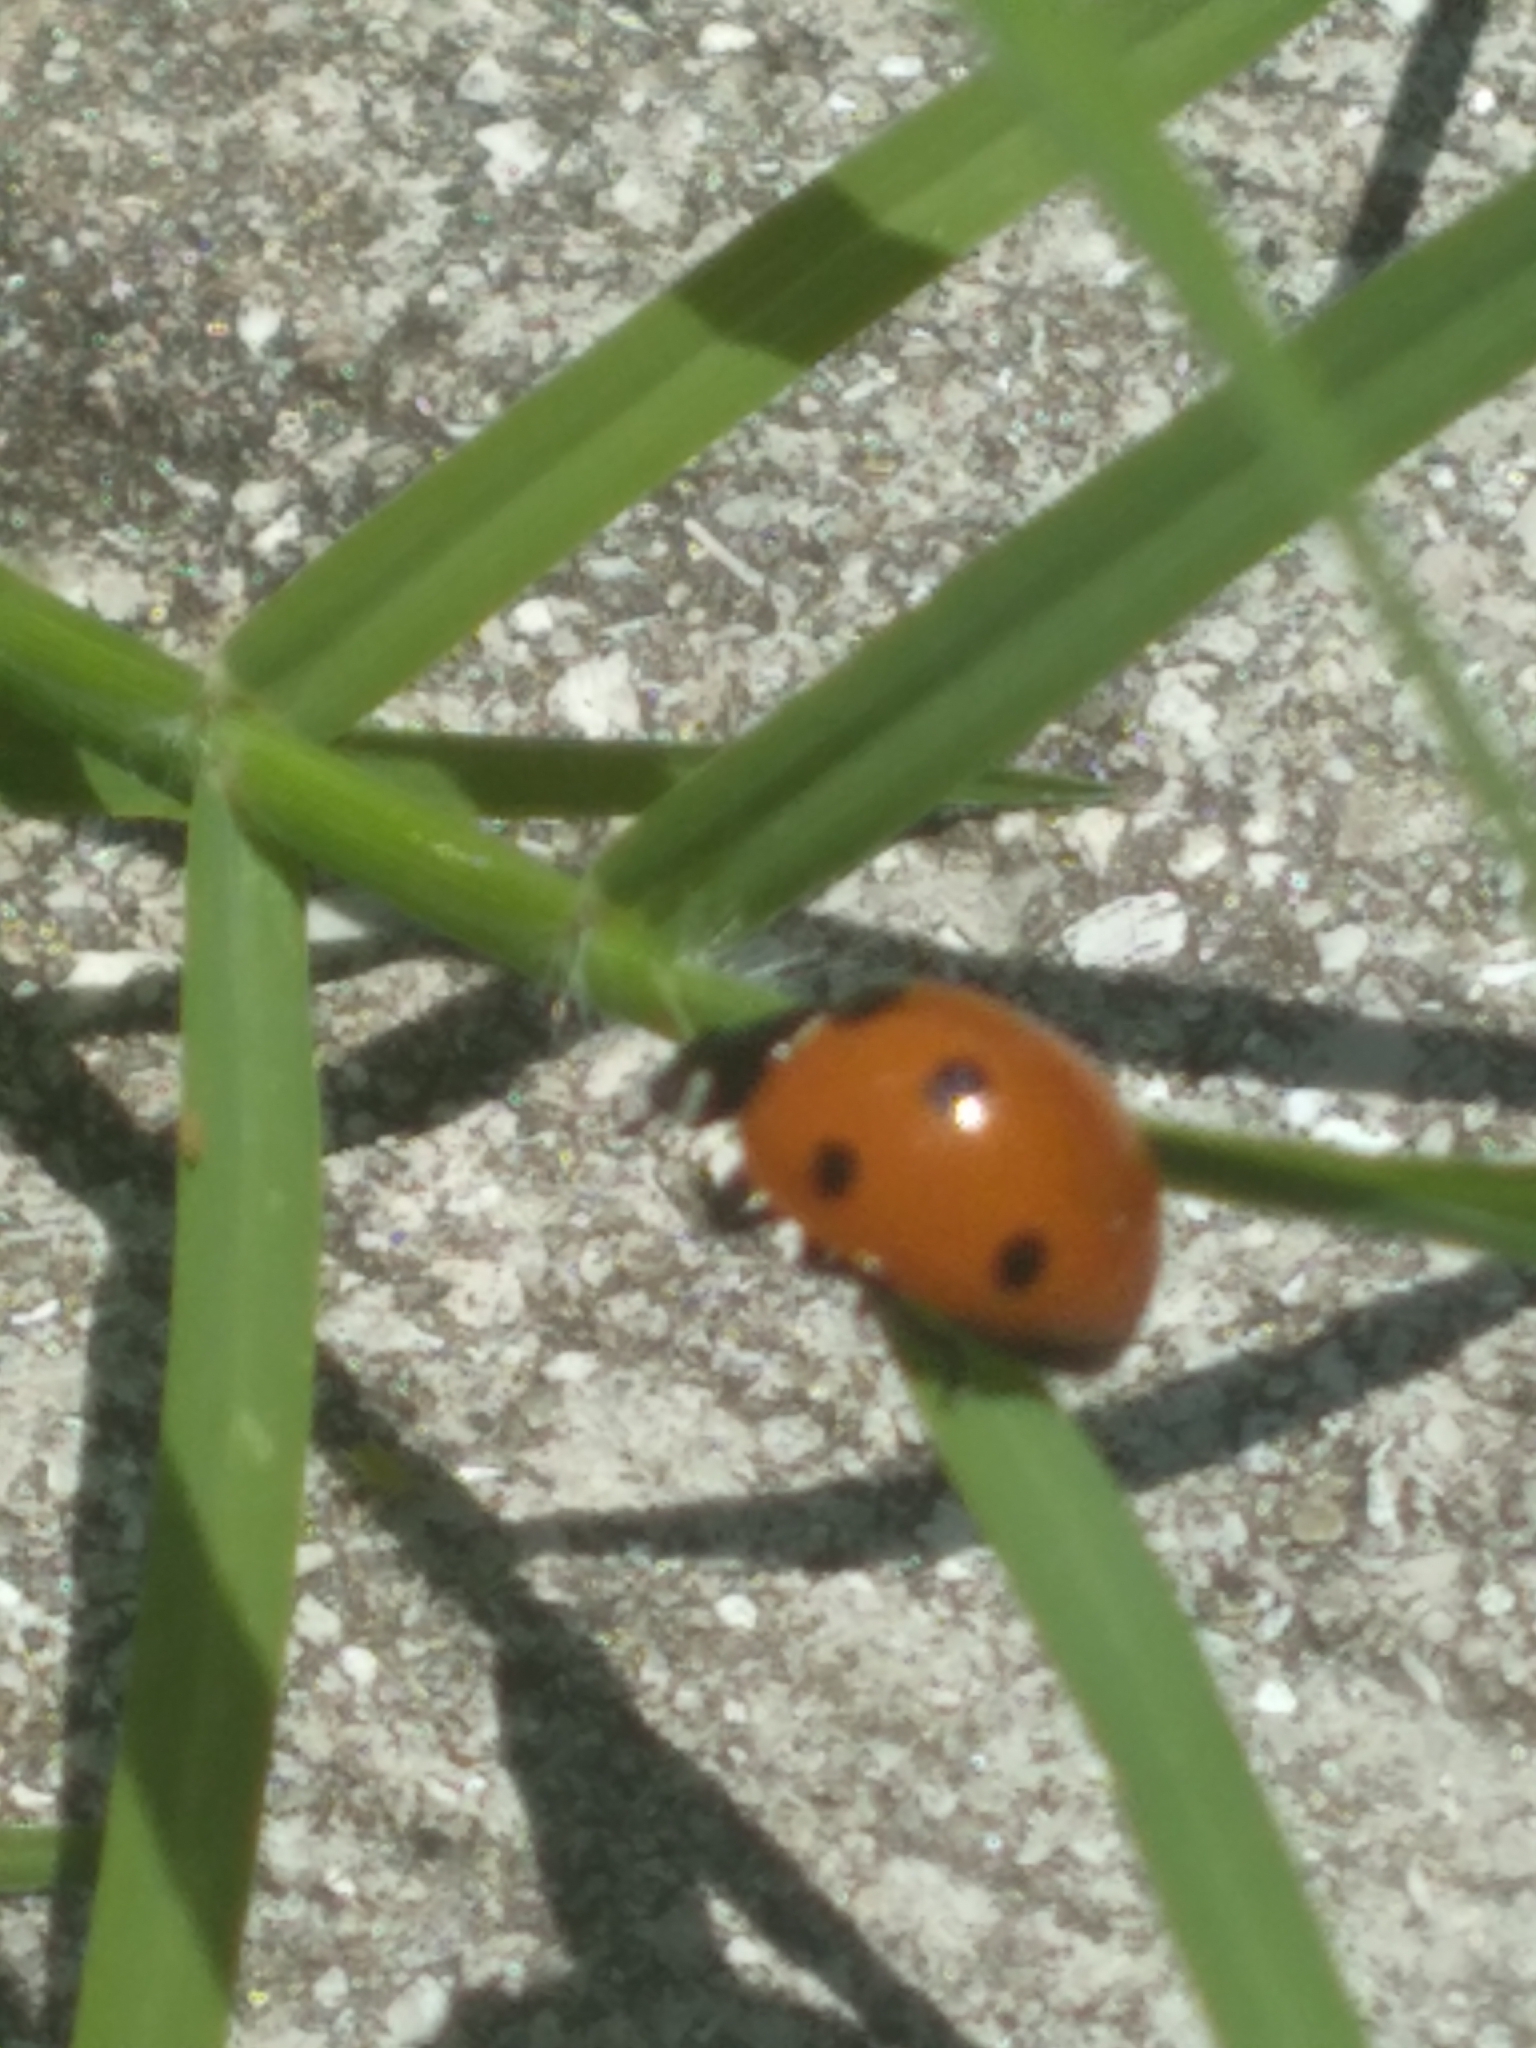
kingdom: Animalia
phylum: Arthropoda
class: Insecta
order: Coleoptera
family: Coccinellidae
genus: Coccinella
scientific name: Coccinella septempunctata
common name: Sevenspotted lady beetle
